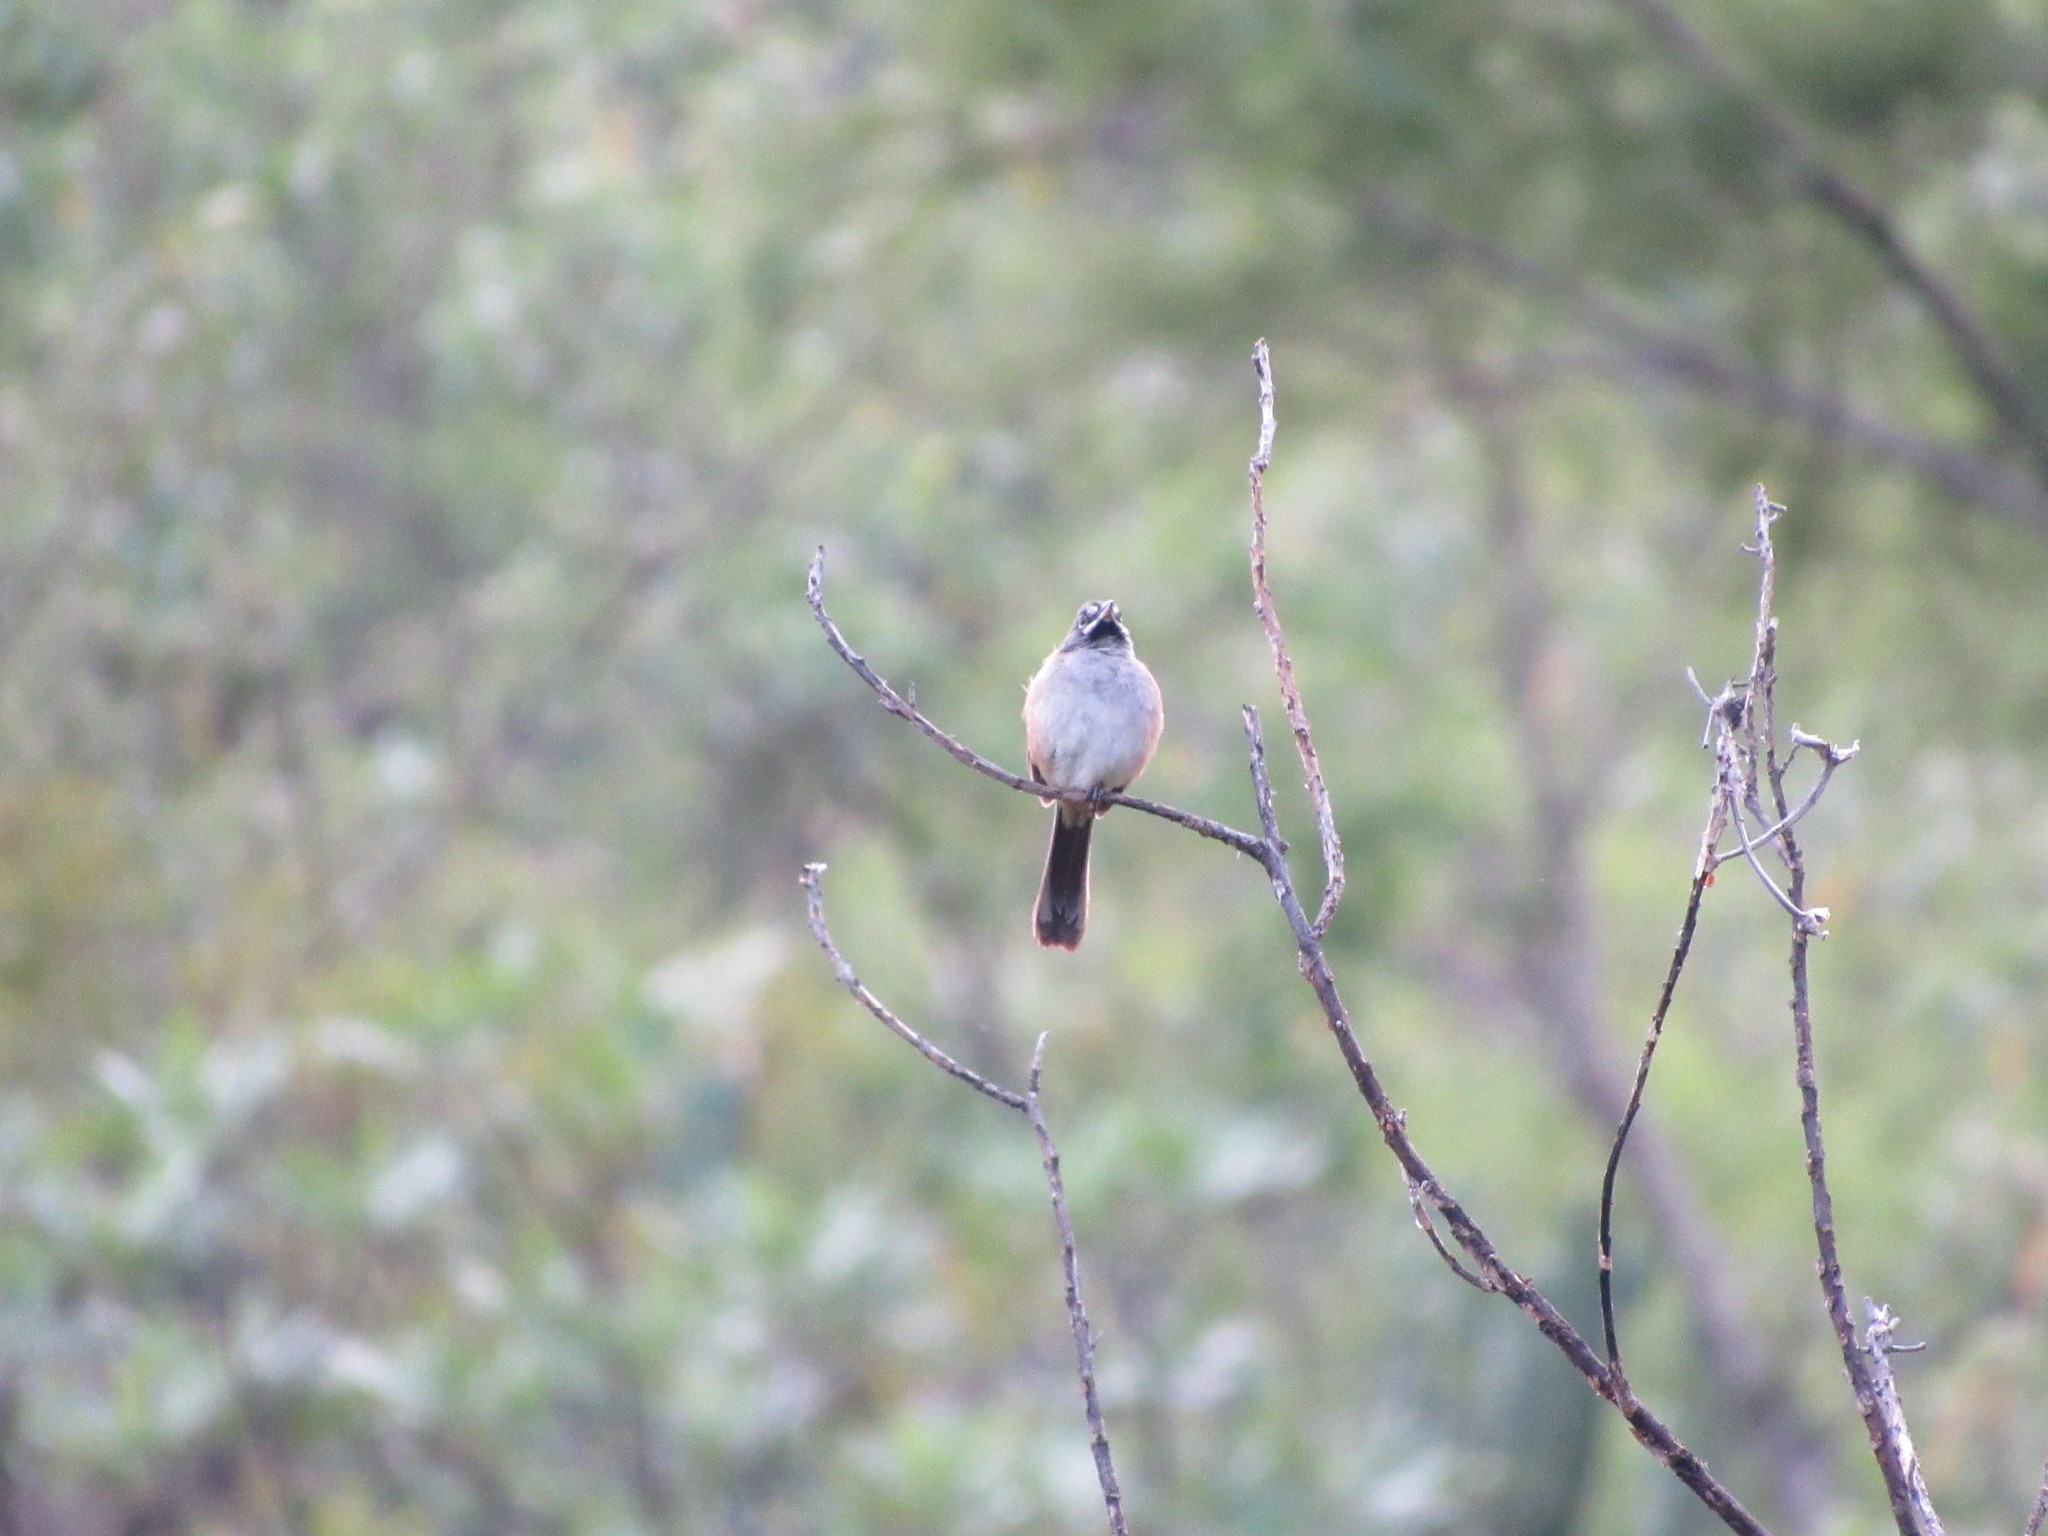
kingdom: Animalia
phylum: Chordata
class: Aves
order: Passeriformes
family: Passerellidae
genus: Peucaea
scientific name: Peucaea mystacalis
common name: Bridled sparrow
